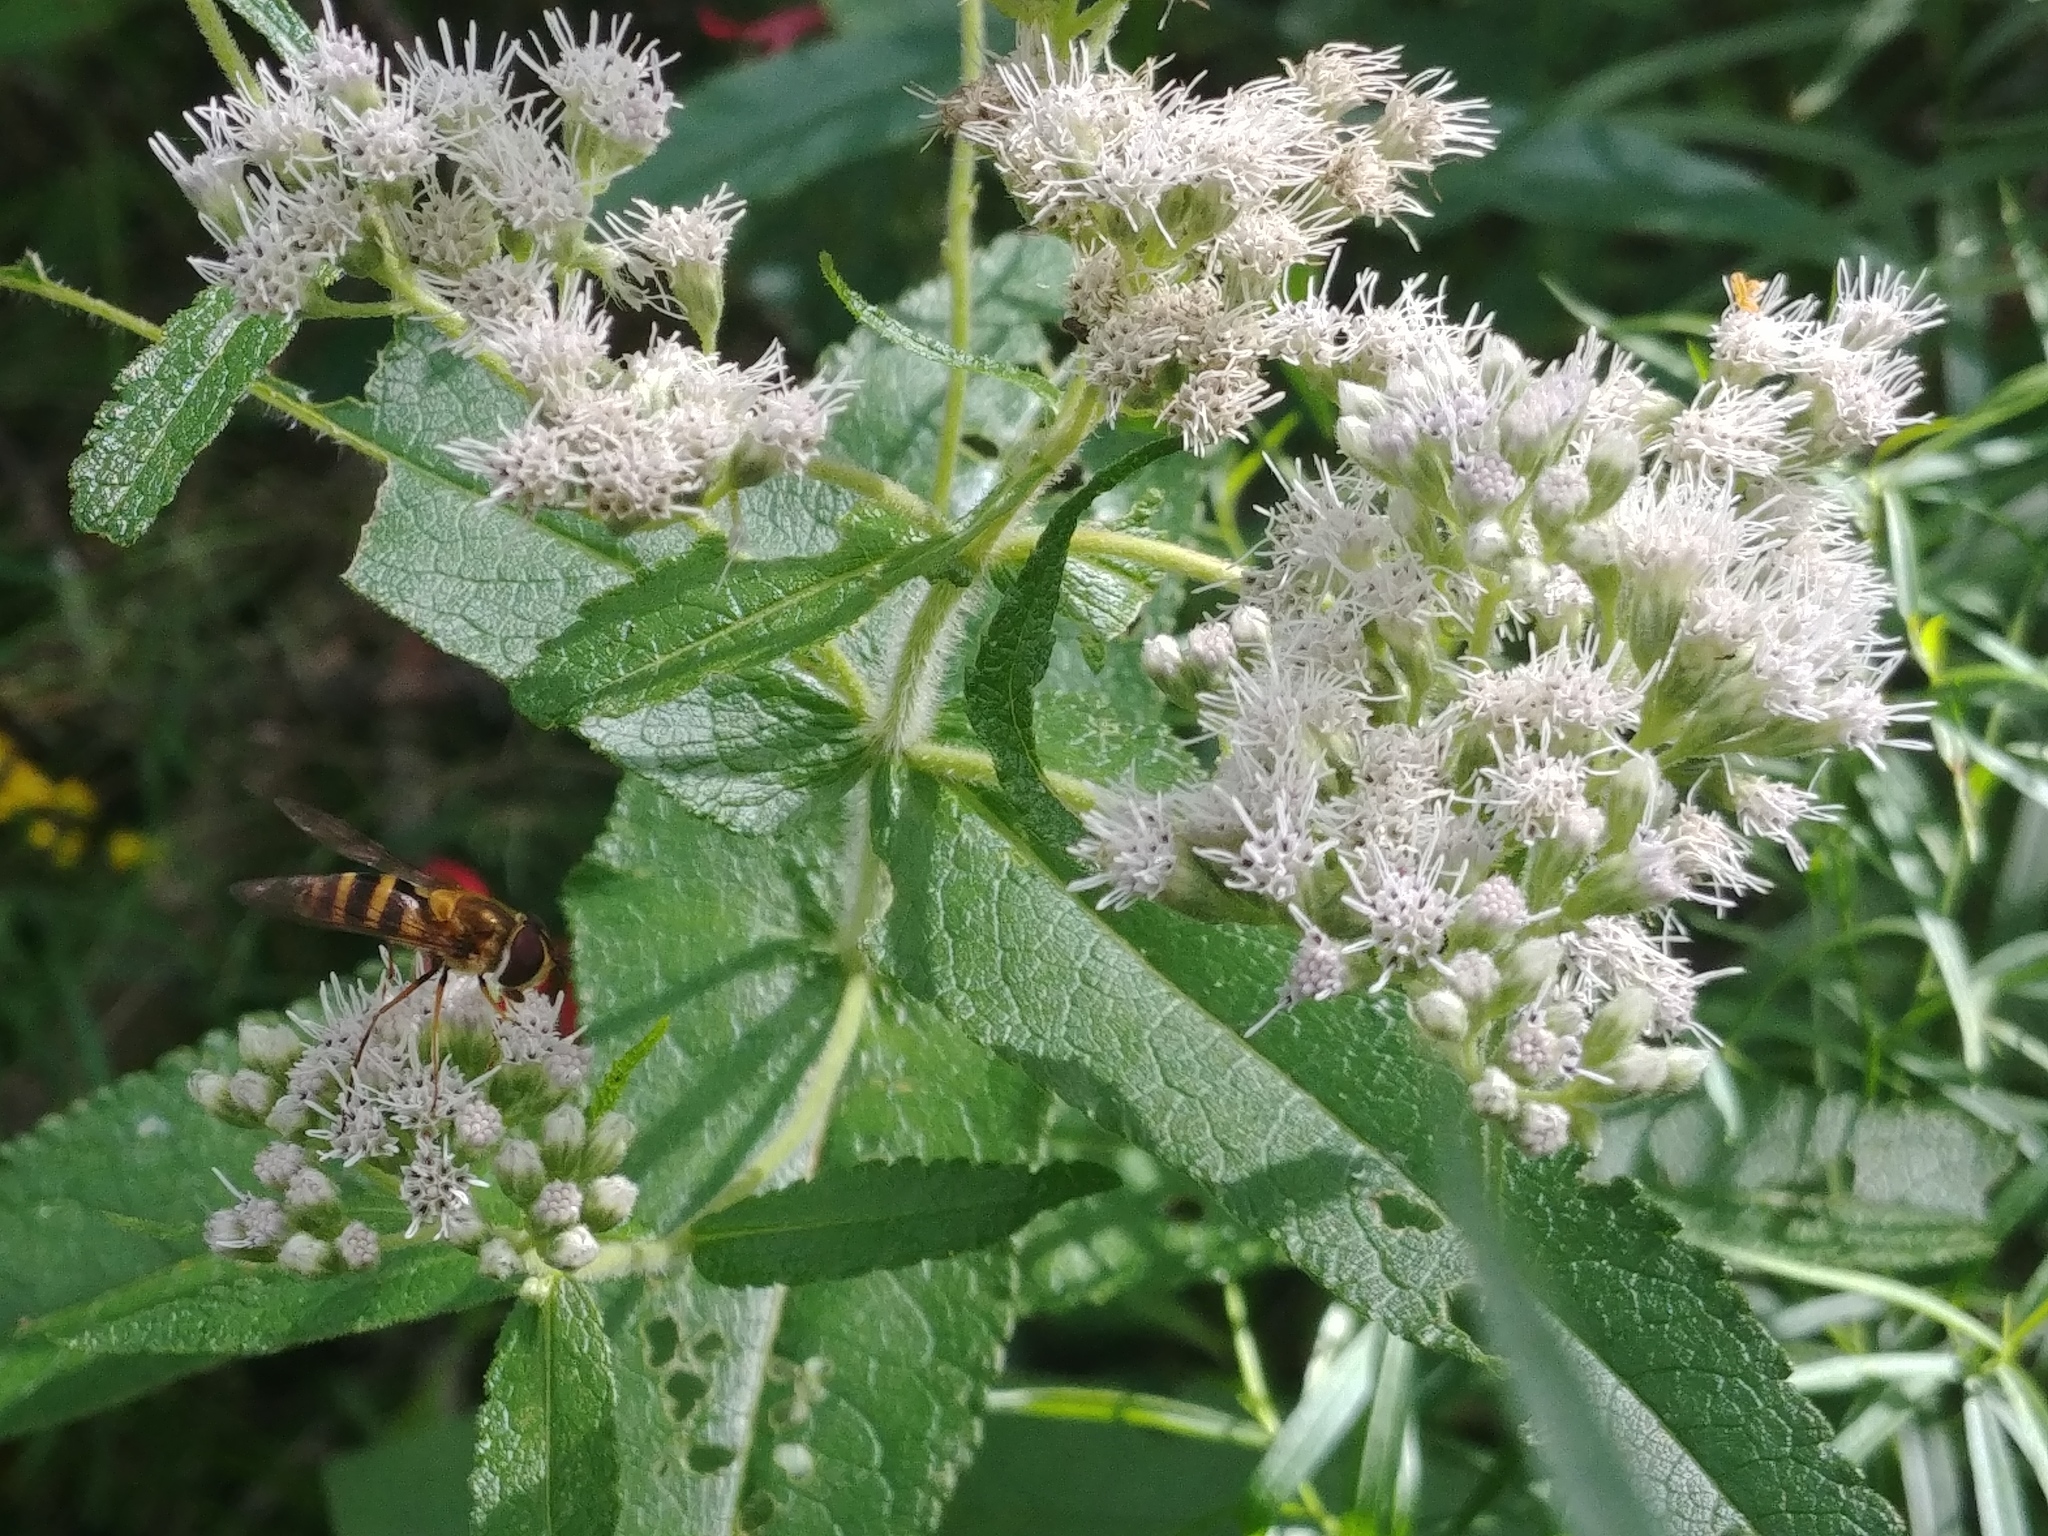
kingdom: Plantae
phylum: Tracheophyta
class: Magnoliopsida
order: Asterales
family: Asteraceae
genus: Eupatorium
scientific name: Eupatorium perfoliatum
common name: Boneset
